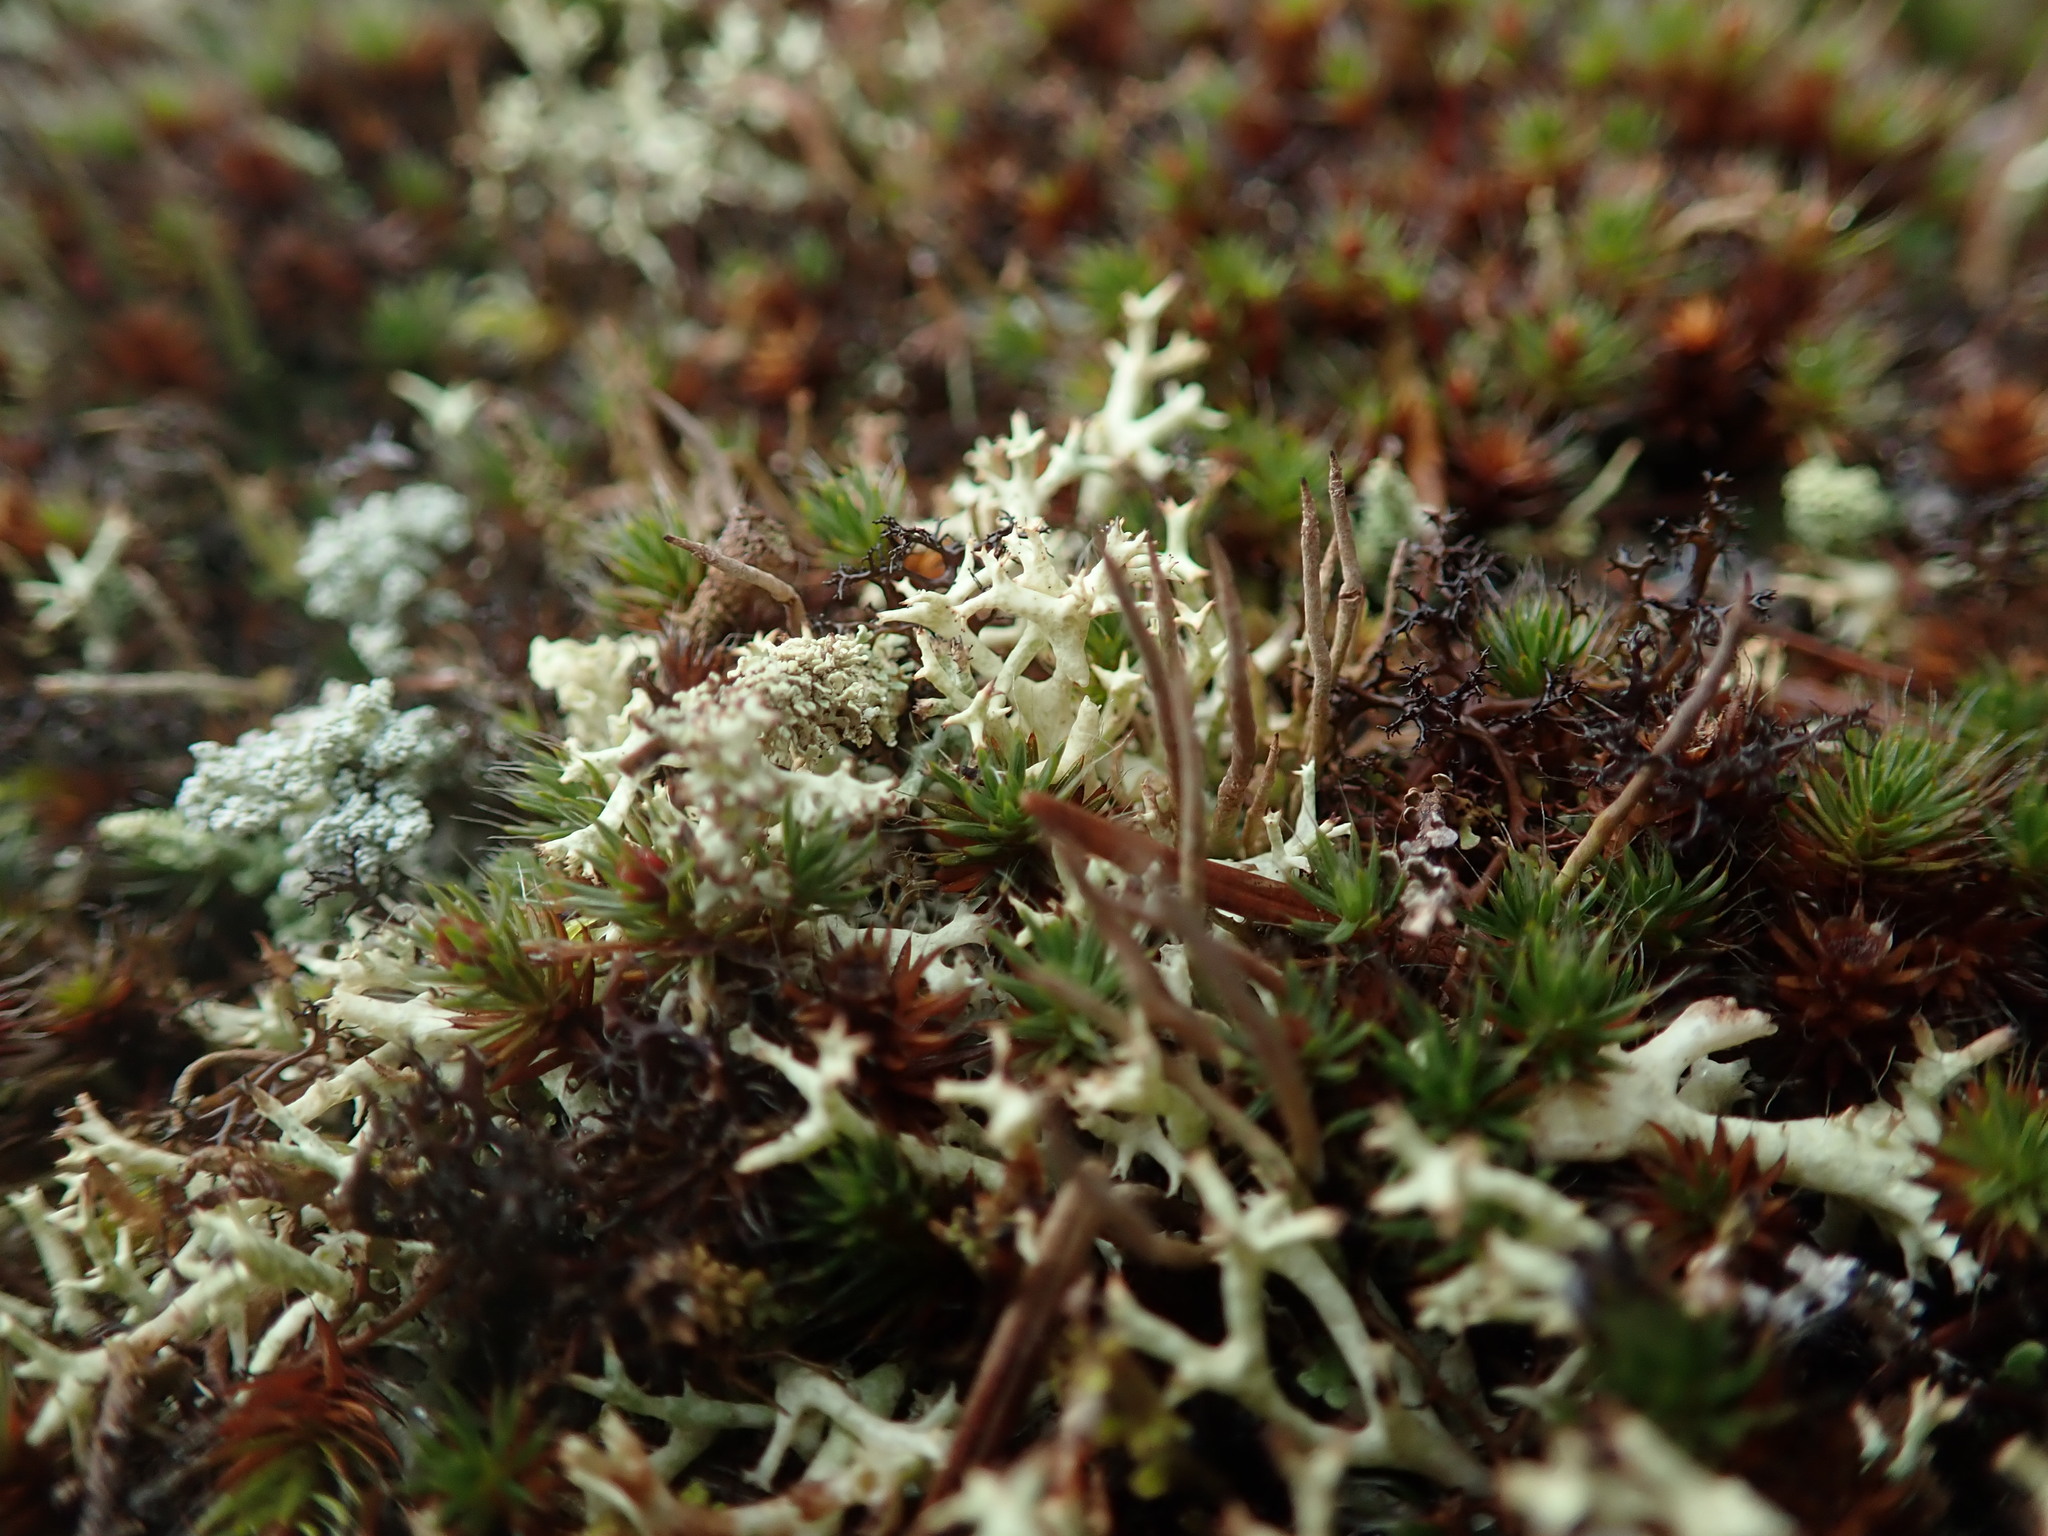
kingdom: Fungi
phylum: Ascomycota
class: Lecanoromycetes
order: Lecanorales
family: Cladoniaceae
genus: Cladonia
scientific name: Cladonia uncialis
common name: Thorn lichen
